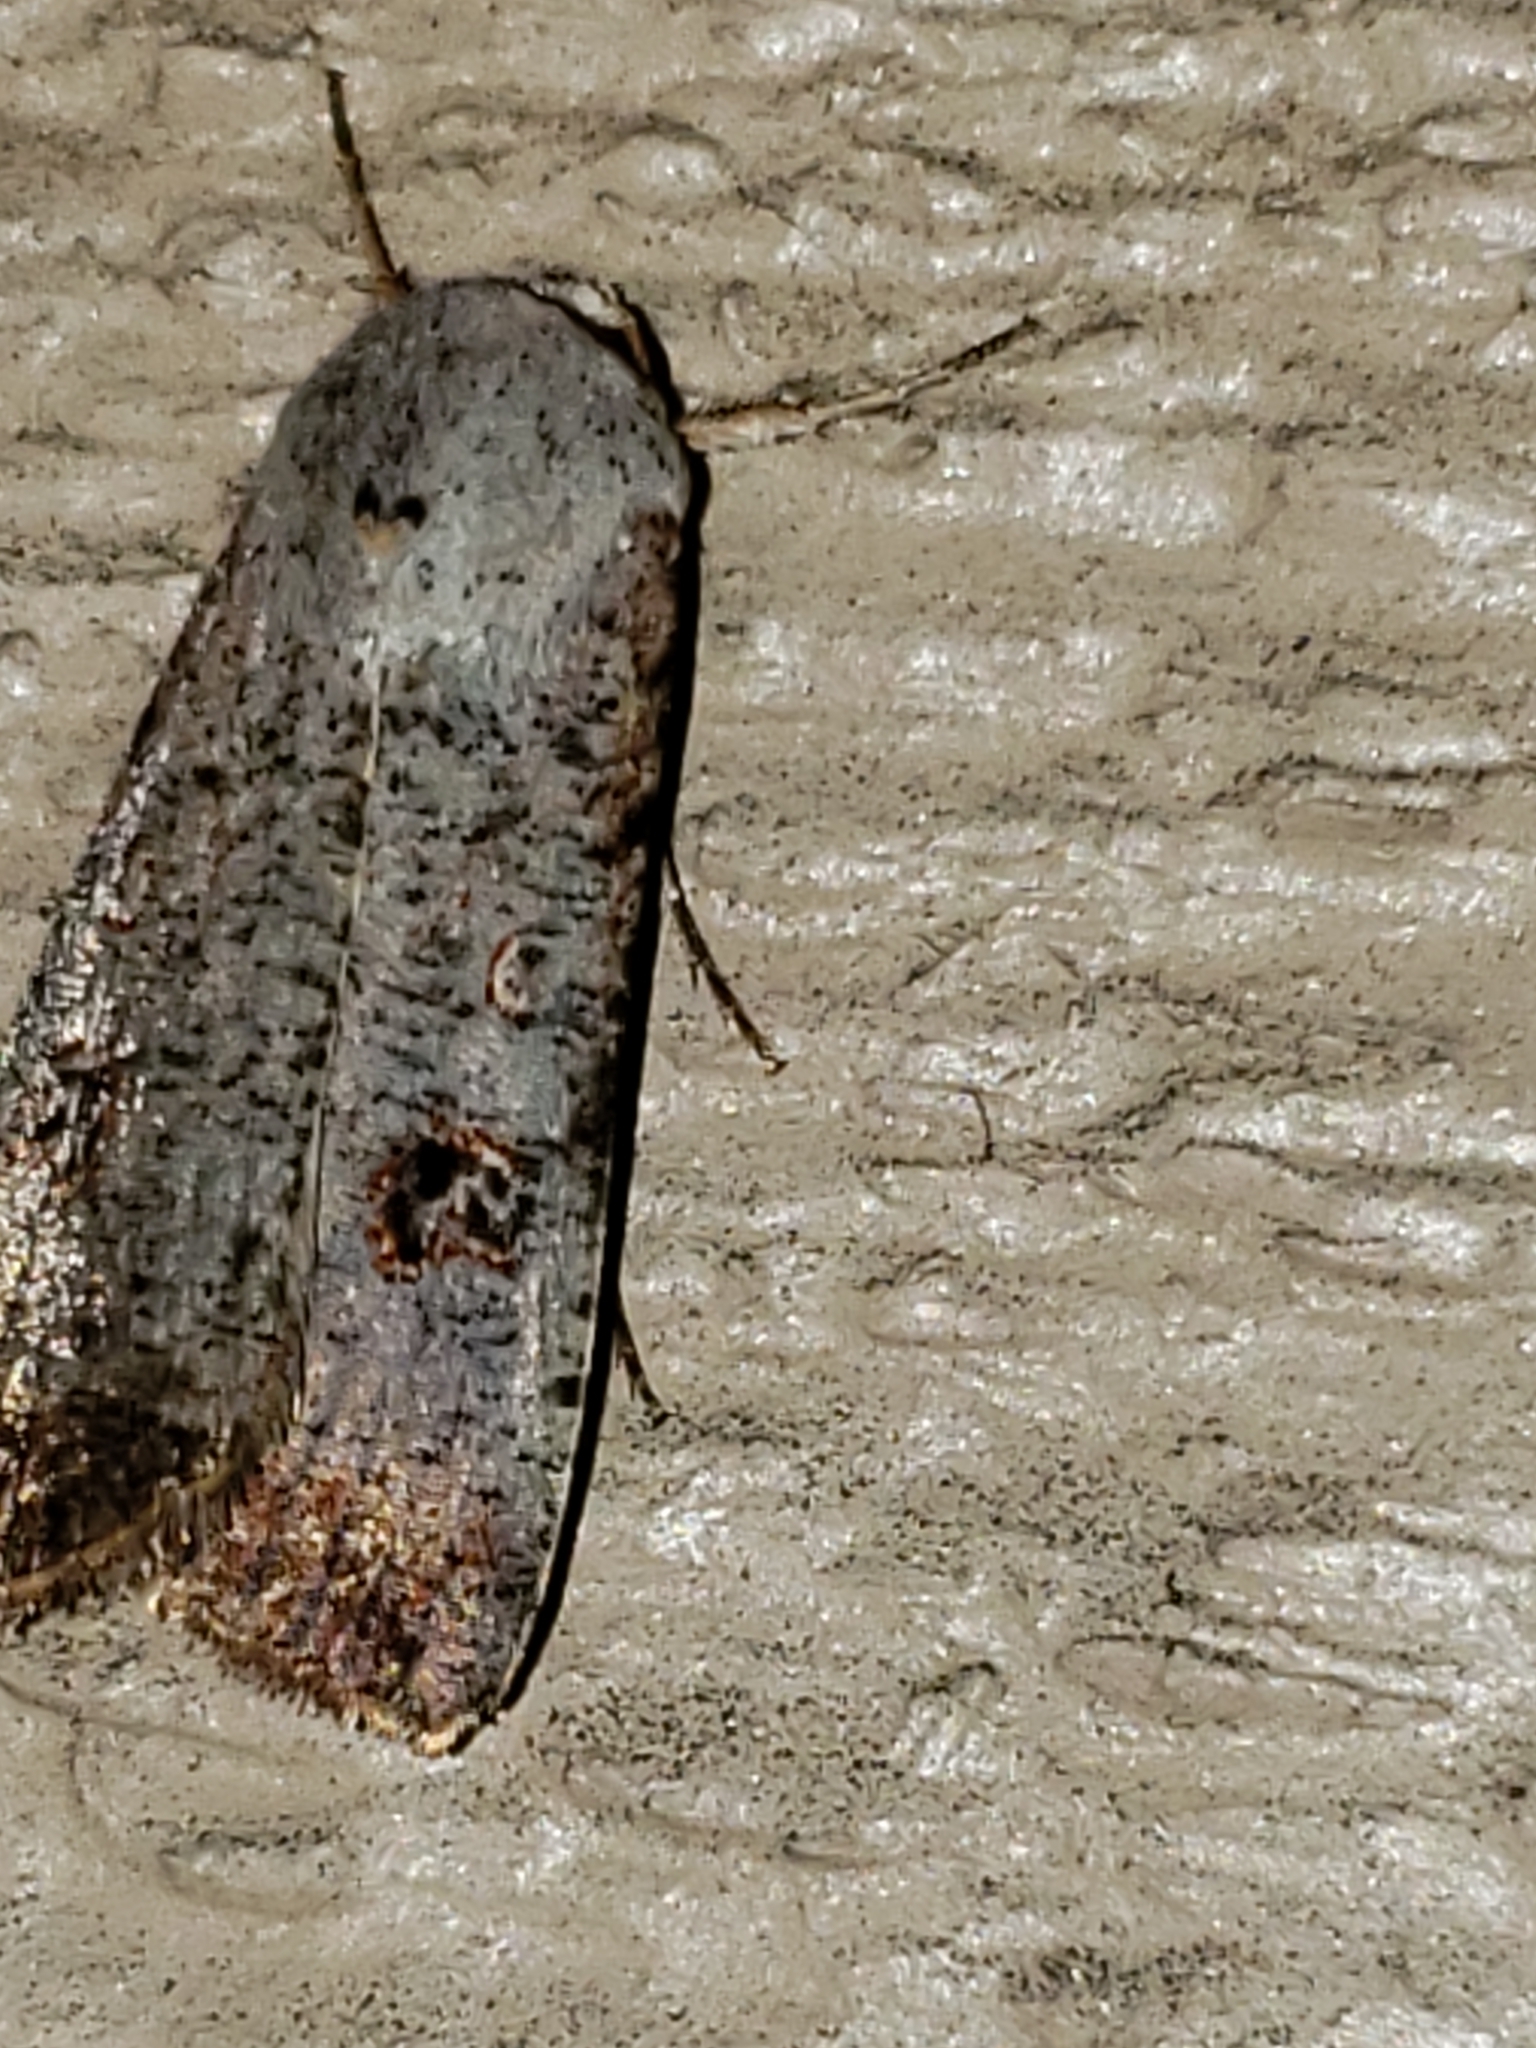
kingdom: Animalia
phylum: Arthropoda
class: Insecta
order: Lepidoptera
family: Noctuidae
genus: Anicla
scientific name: Anicla infecta
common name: Green cutworm
